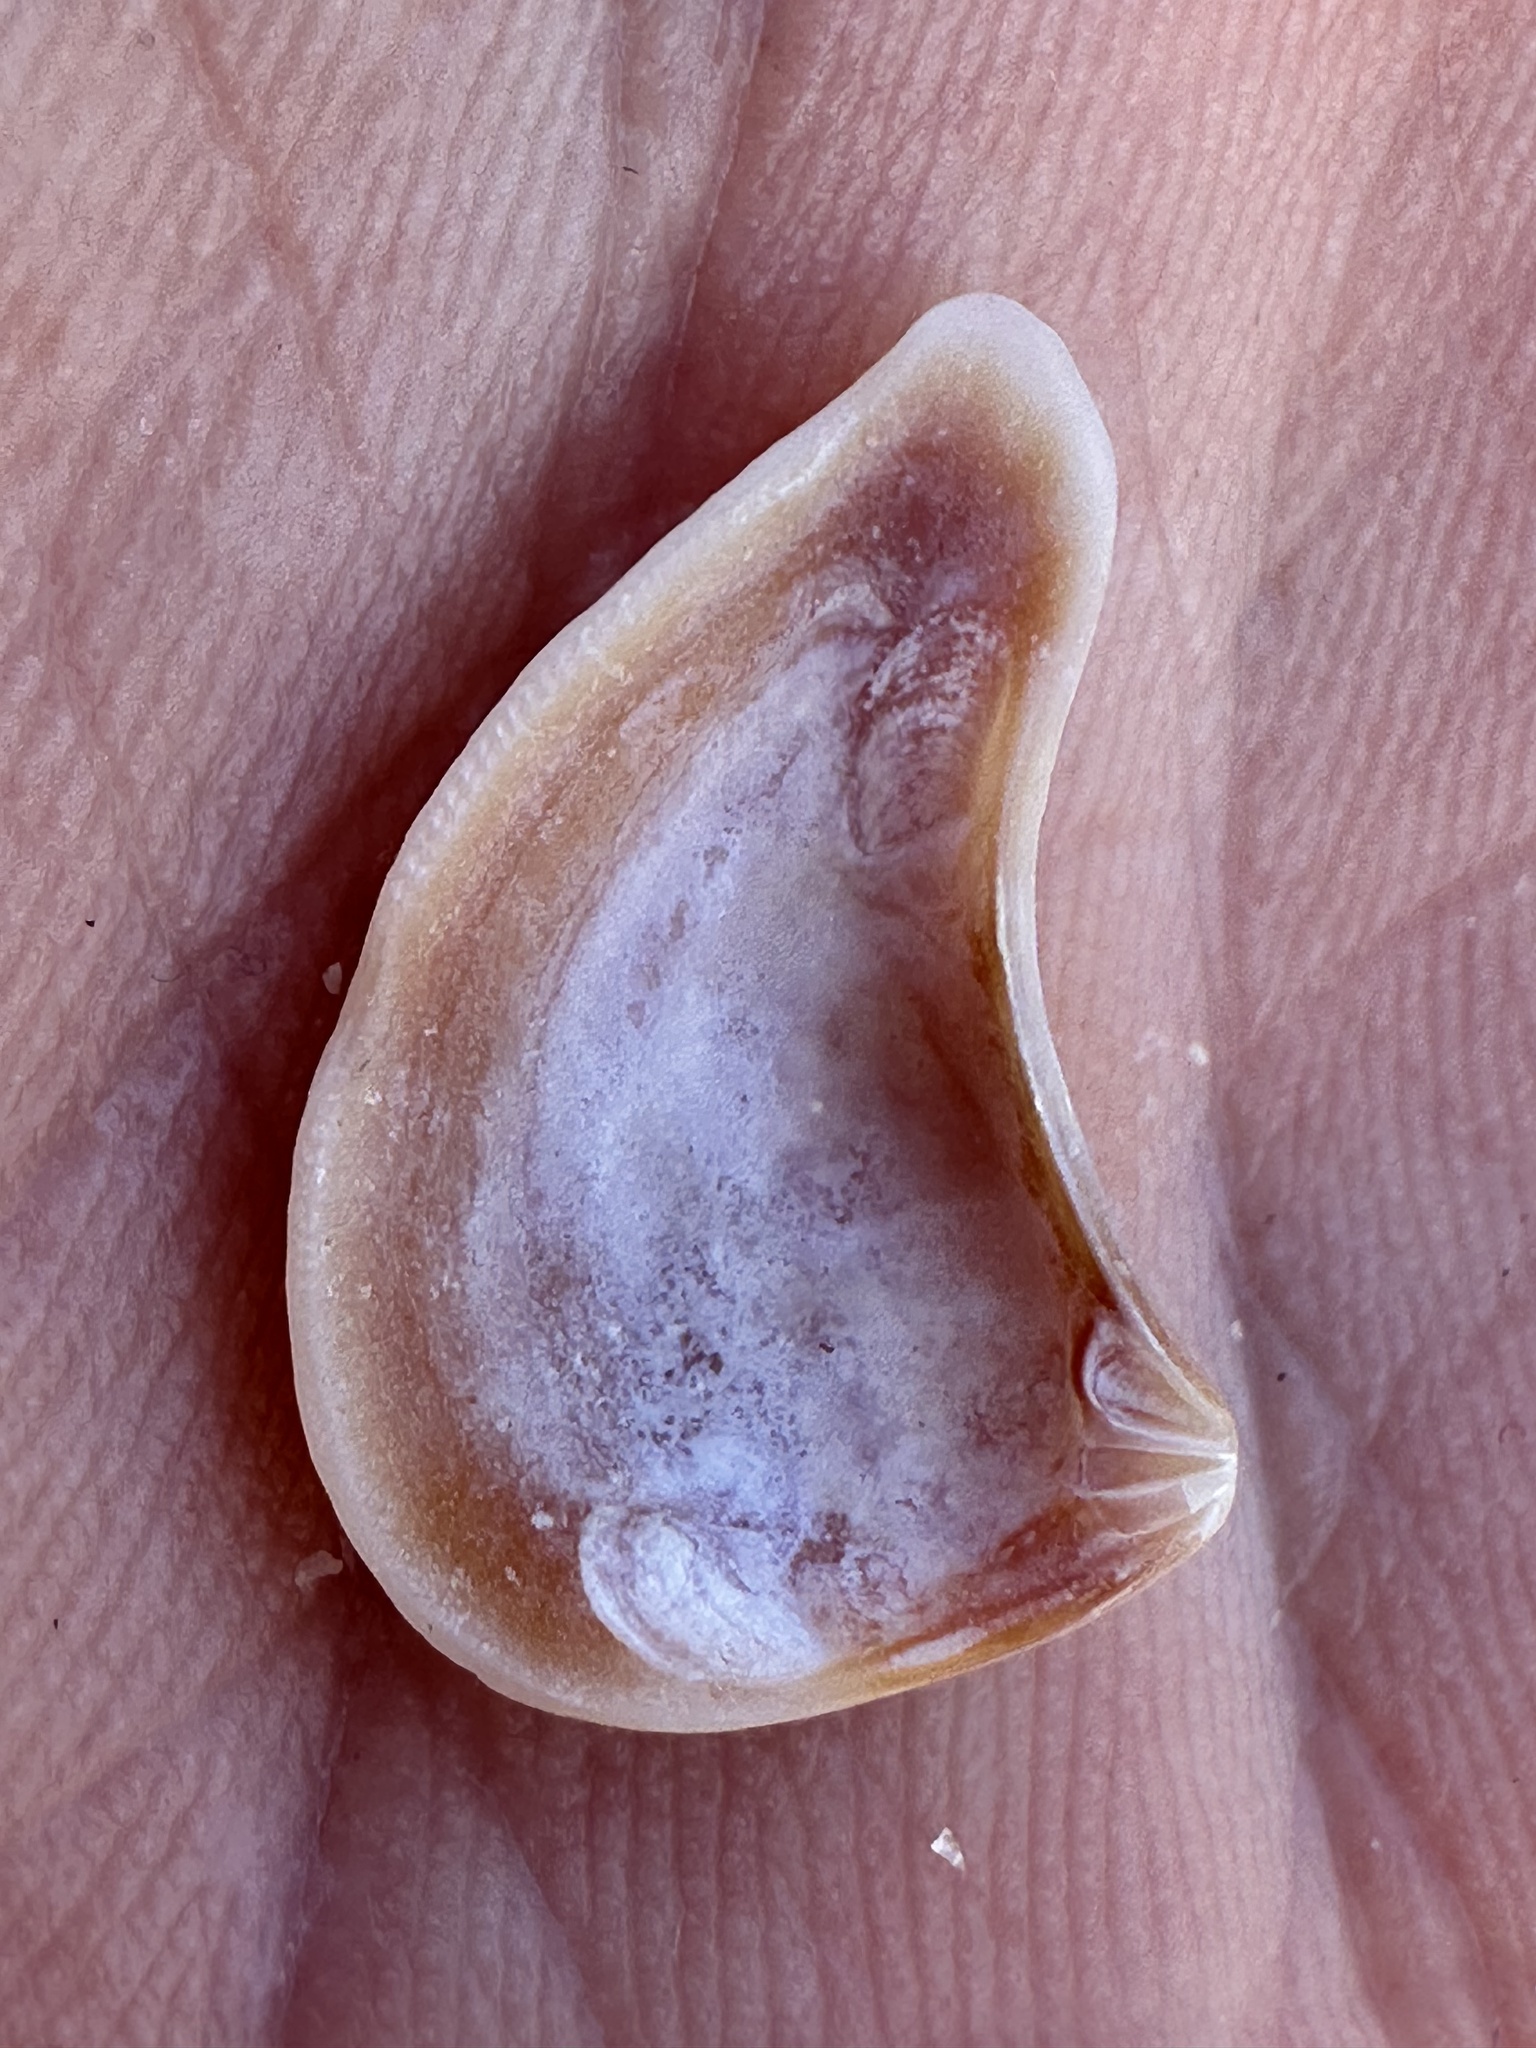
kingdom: Animalia
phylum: Mollusca
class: Bivalvia
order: Carditida
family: Crassatellidae
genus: Bathytormus
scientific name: Bathytormus radiatus
